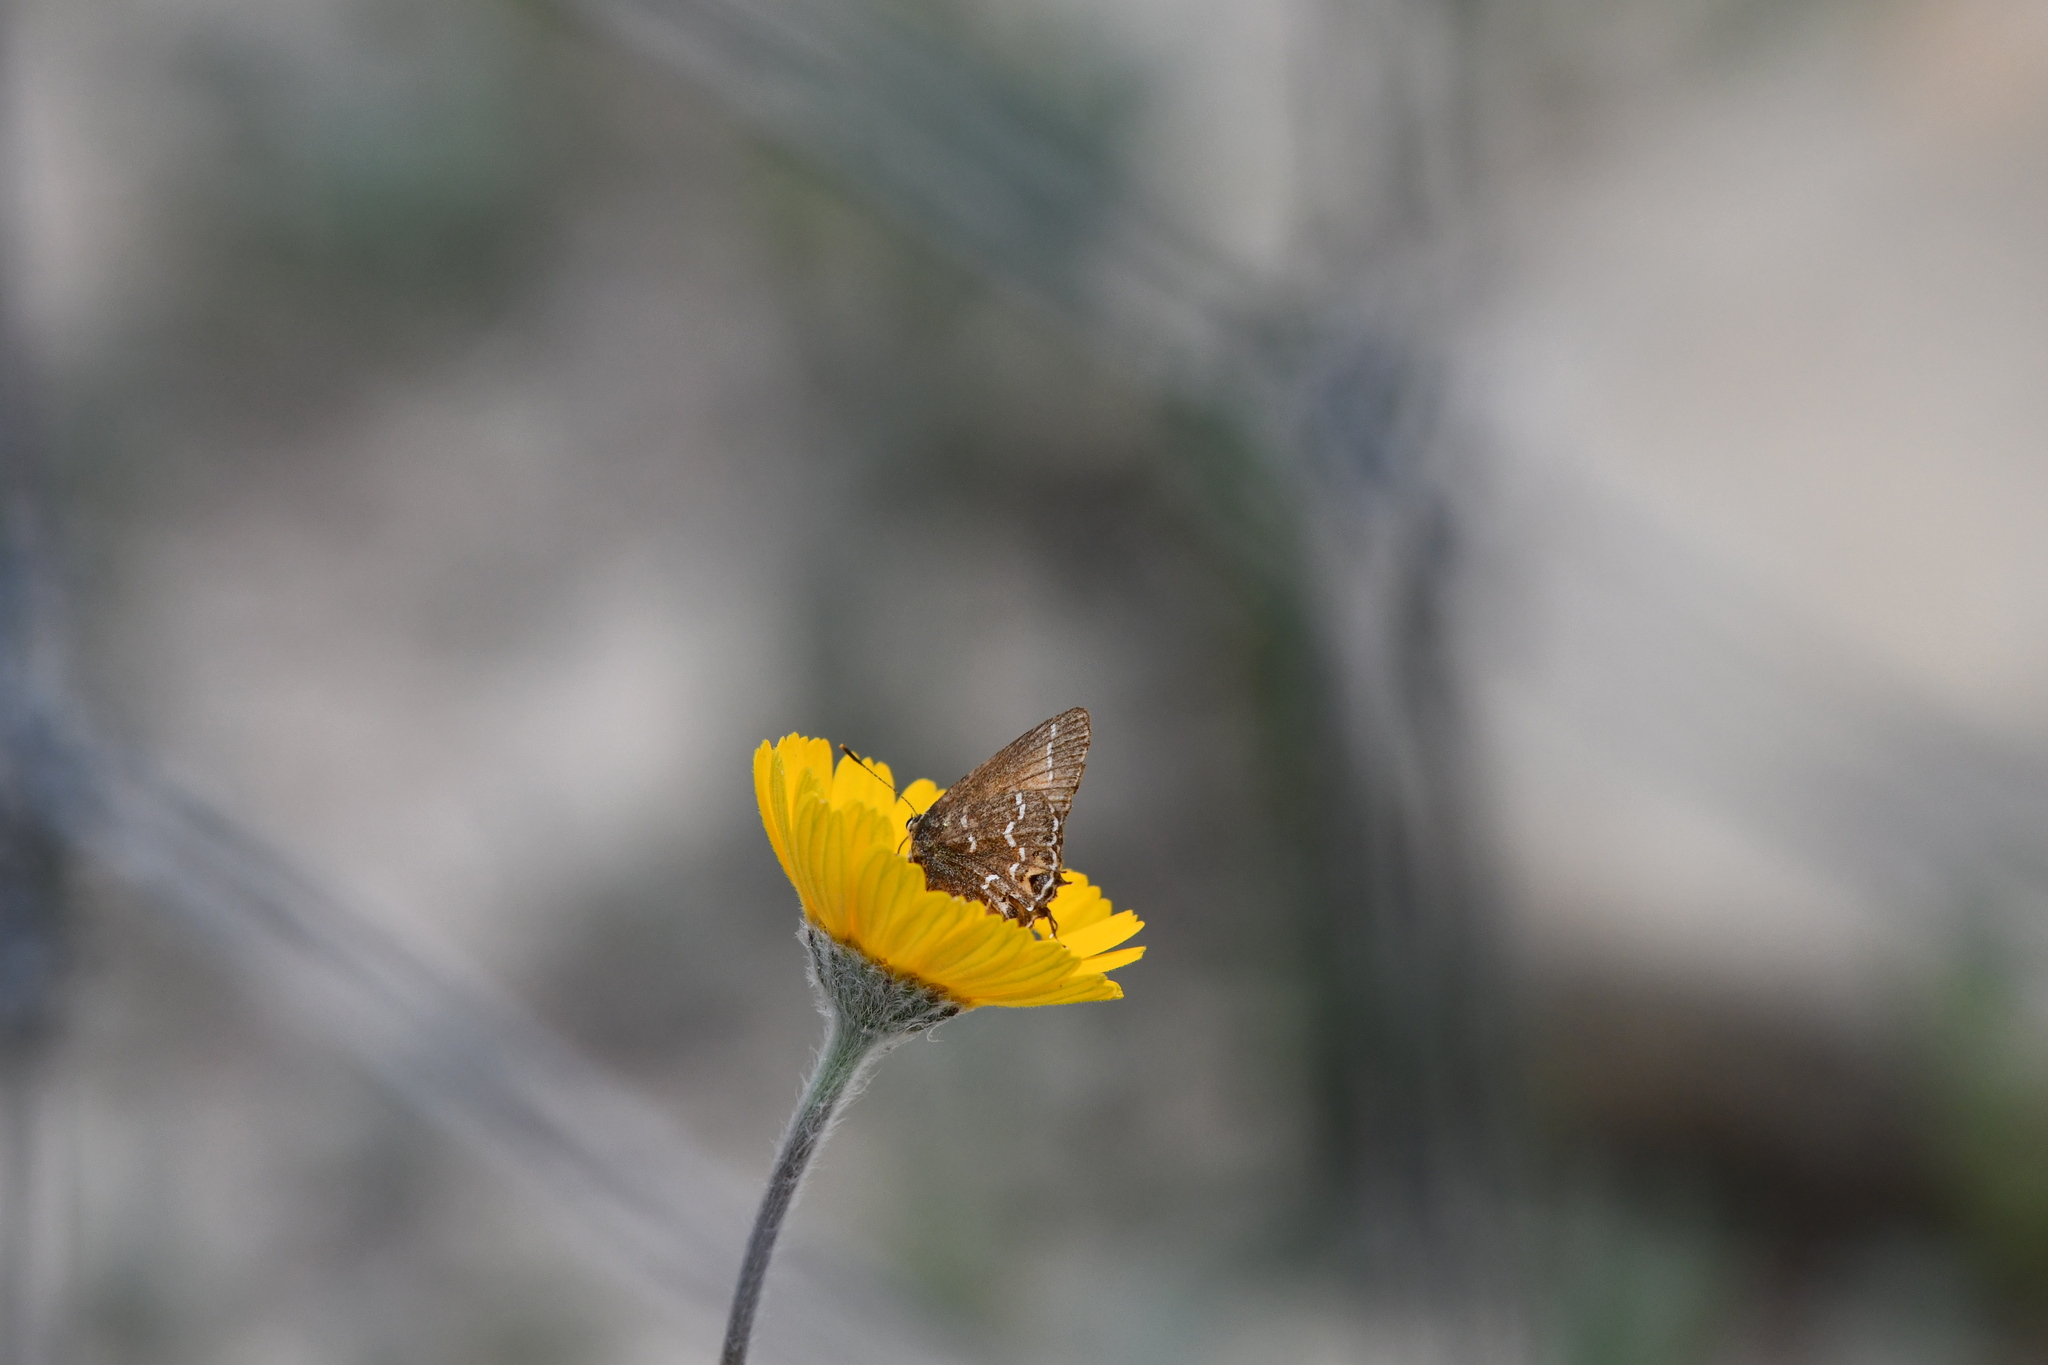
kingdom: Animalia
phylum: Arthropoda
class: Insecta
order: Lepidoptera
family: Lycaenidae
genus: Mitoura
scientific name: Mitoura gryneus
